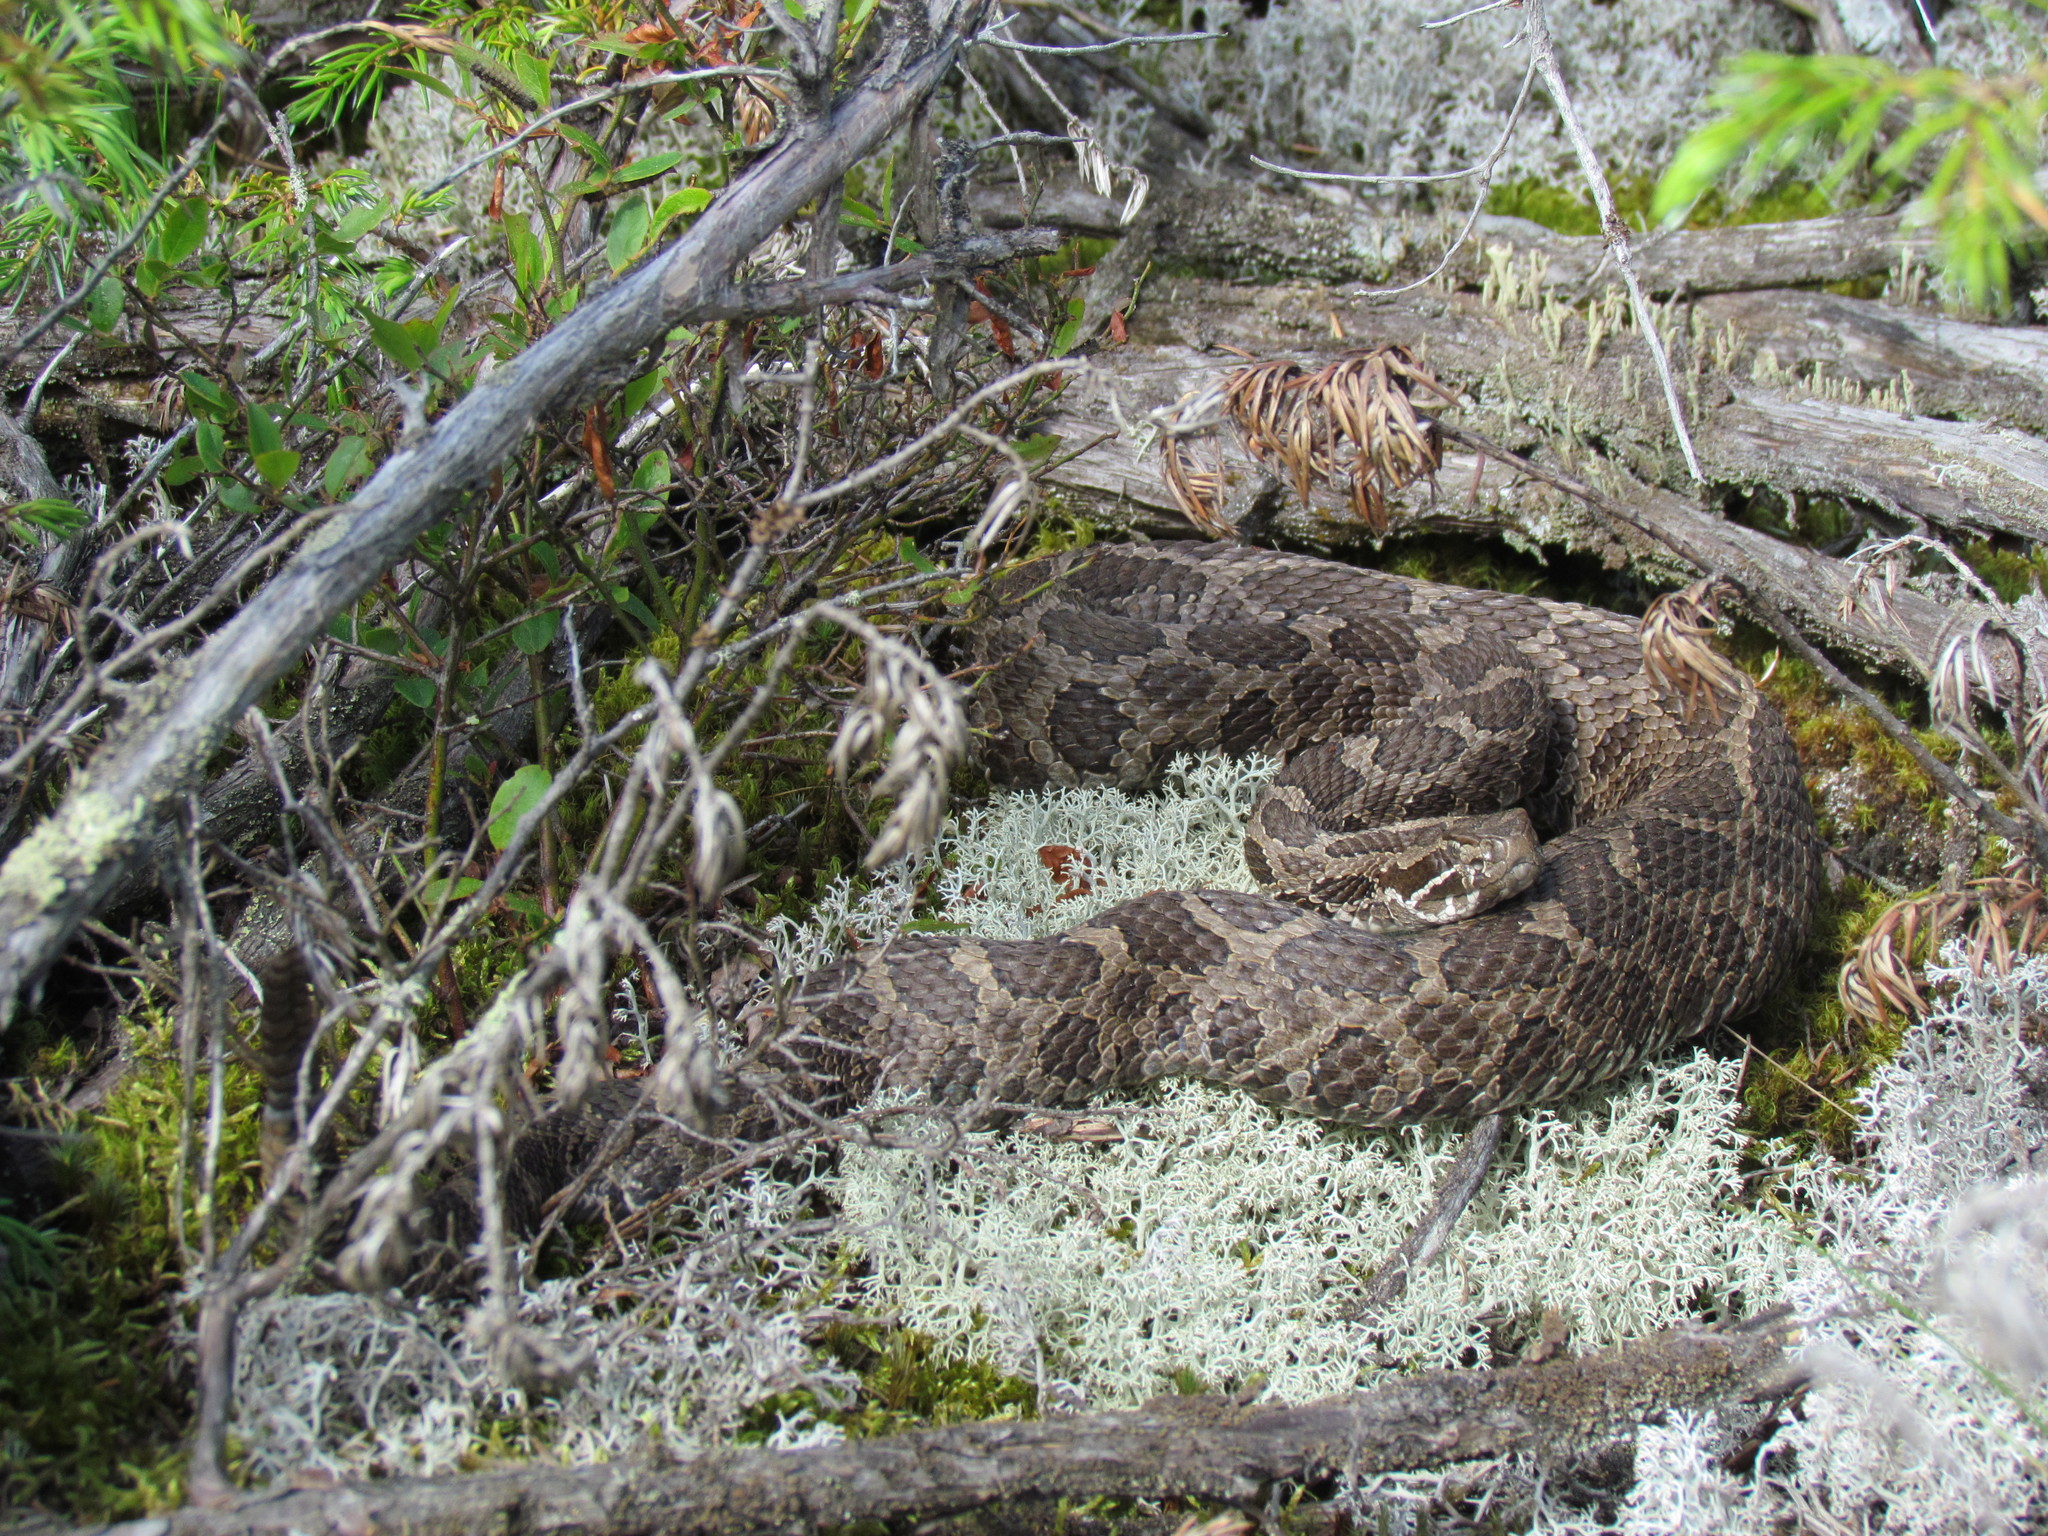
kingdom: Animalia
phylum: Chordata
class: Squamata
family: Viperidae
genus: Sistrurus
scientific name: Sistrurus catenatus
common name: Massasauga
